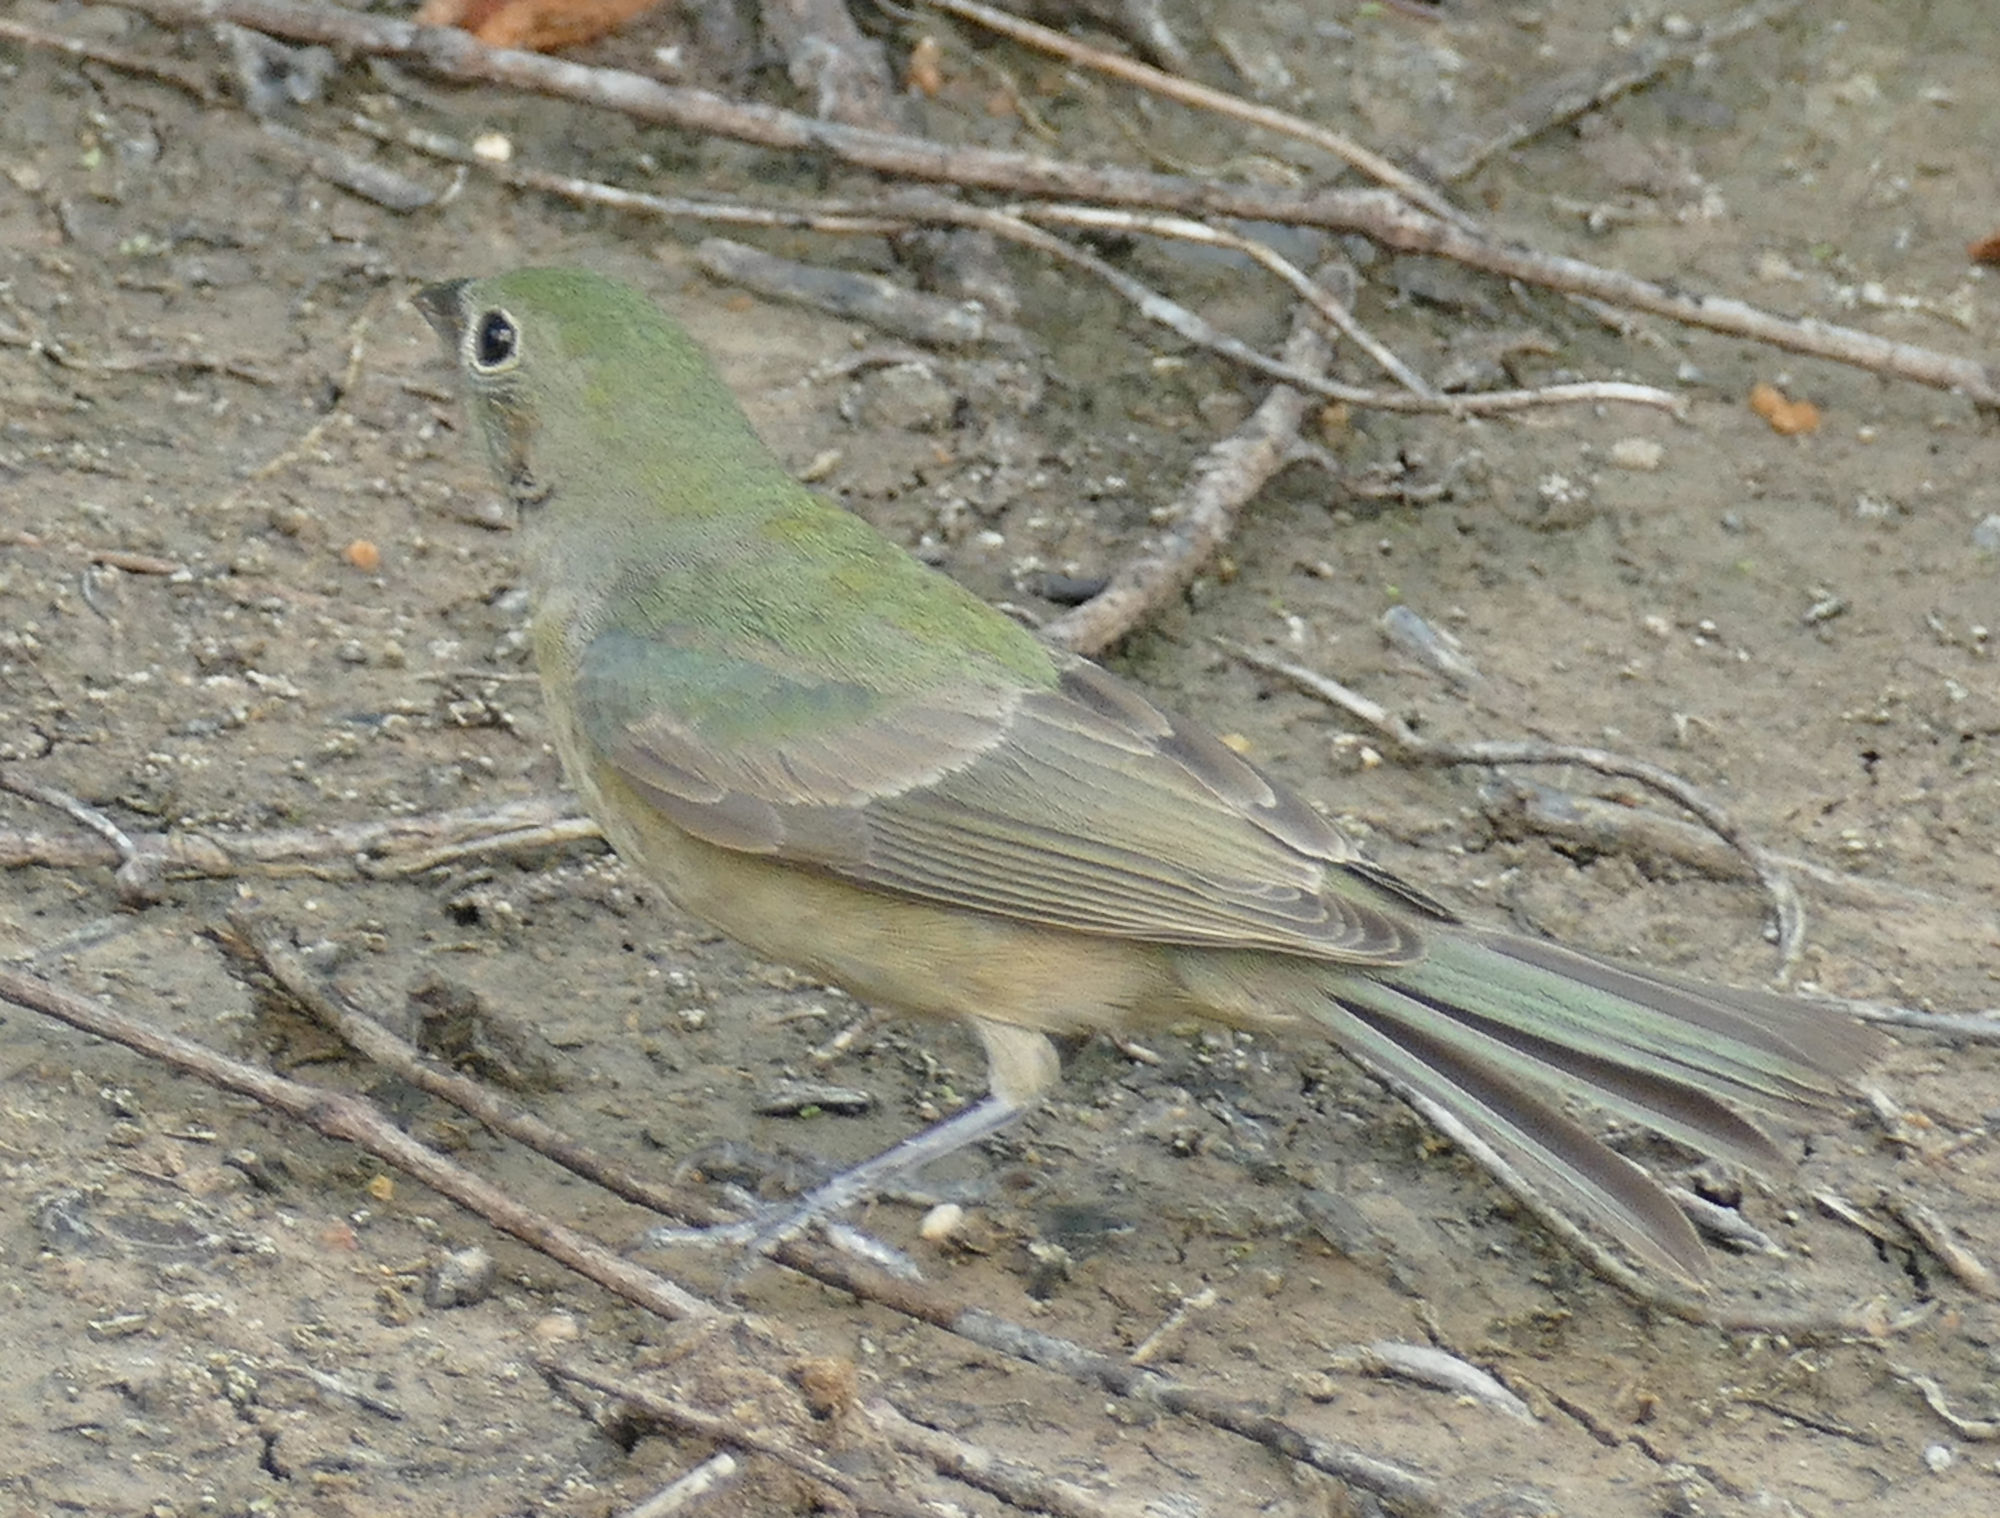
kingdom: Animalia
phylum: Chordata
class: Aves
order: Passeriformes
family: Cardinalidae
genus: Passerina
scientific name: Passerina ciris
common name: Painted bunting
